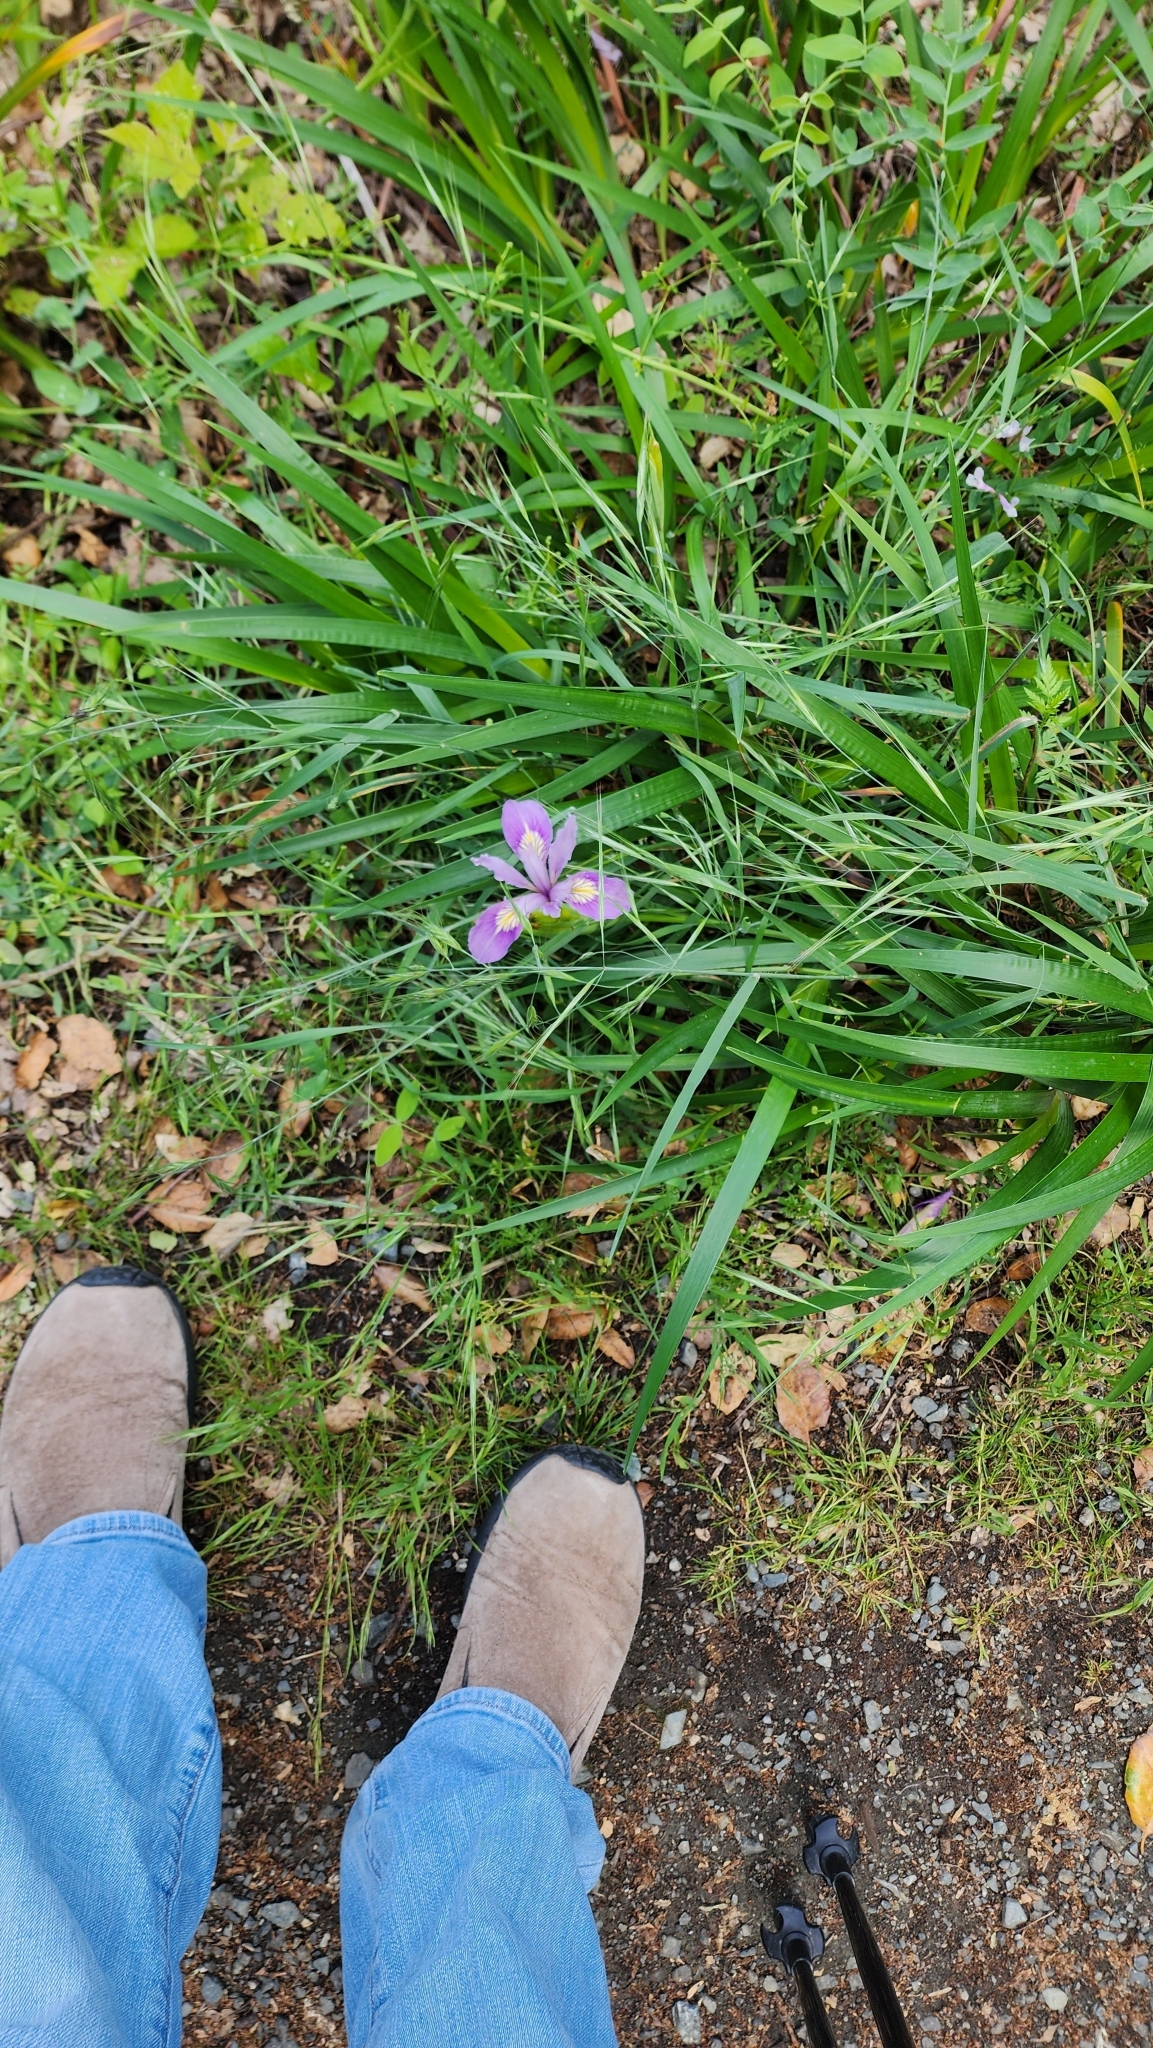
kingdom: Plantae
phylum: Tracheophyta
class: Liliopsida
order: Asparagales
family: Iridaceae
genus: Iris
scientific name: Iris douglasiana
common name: Marin iris
